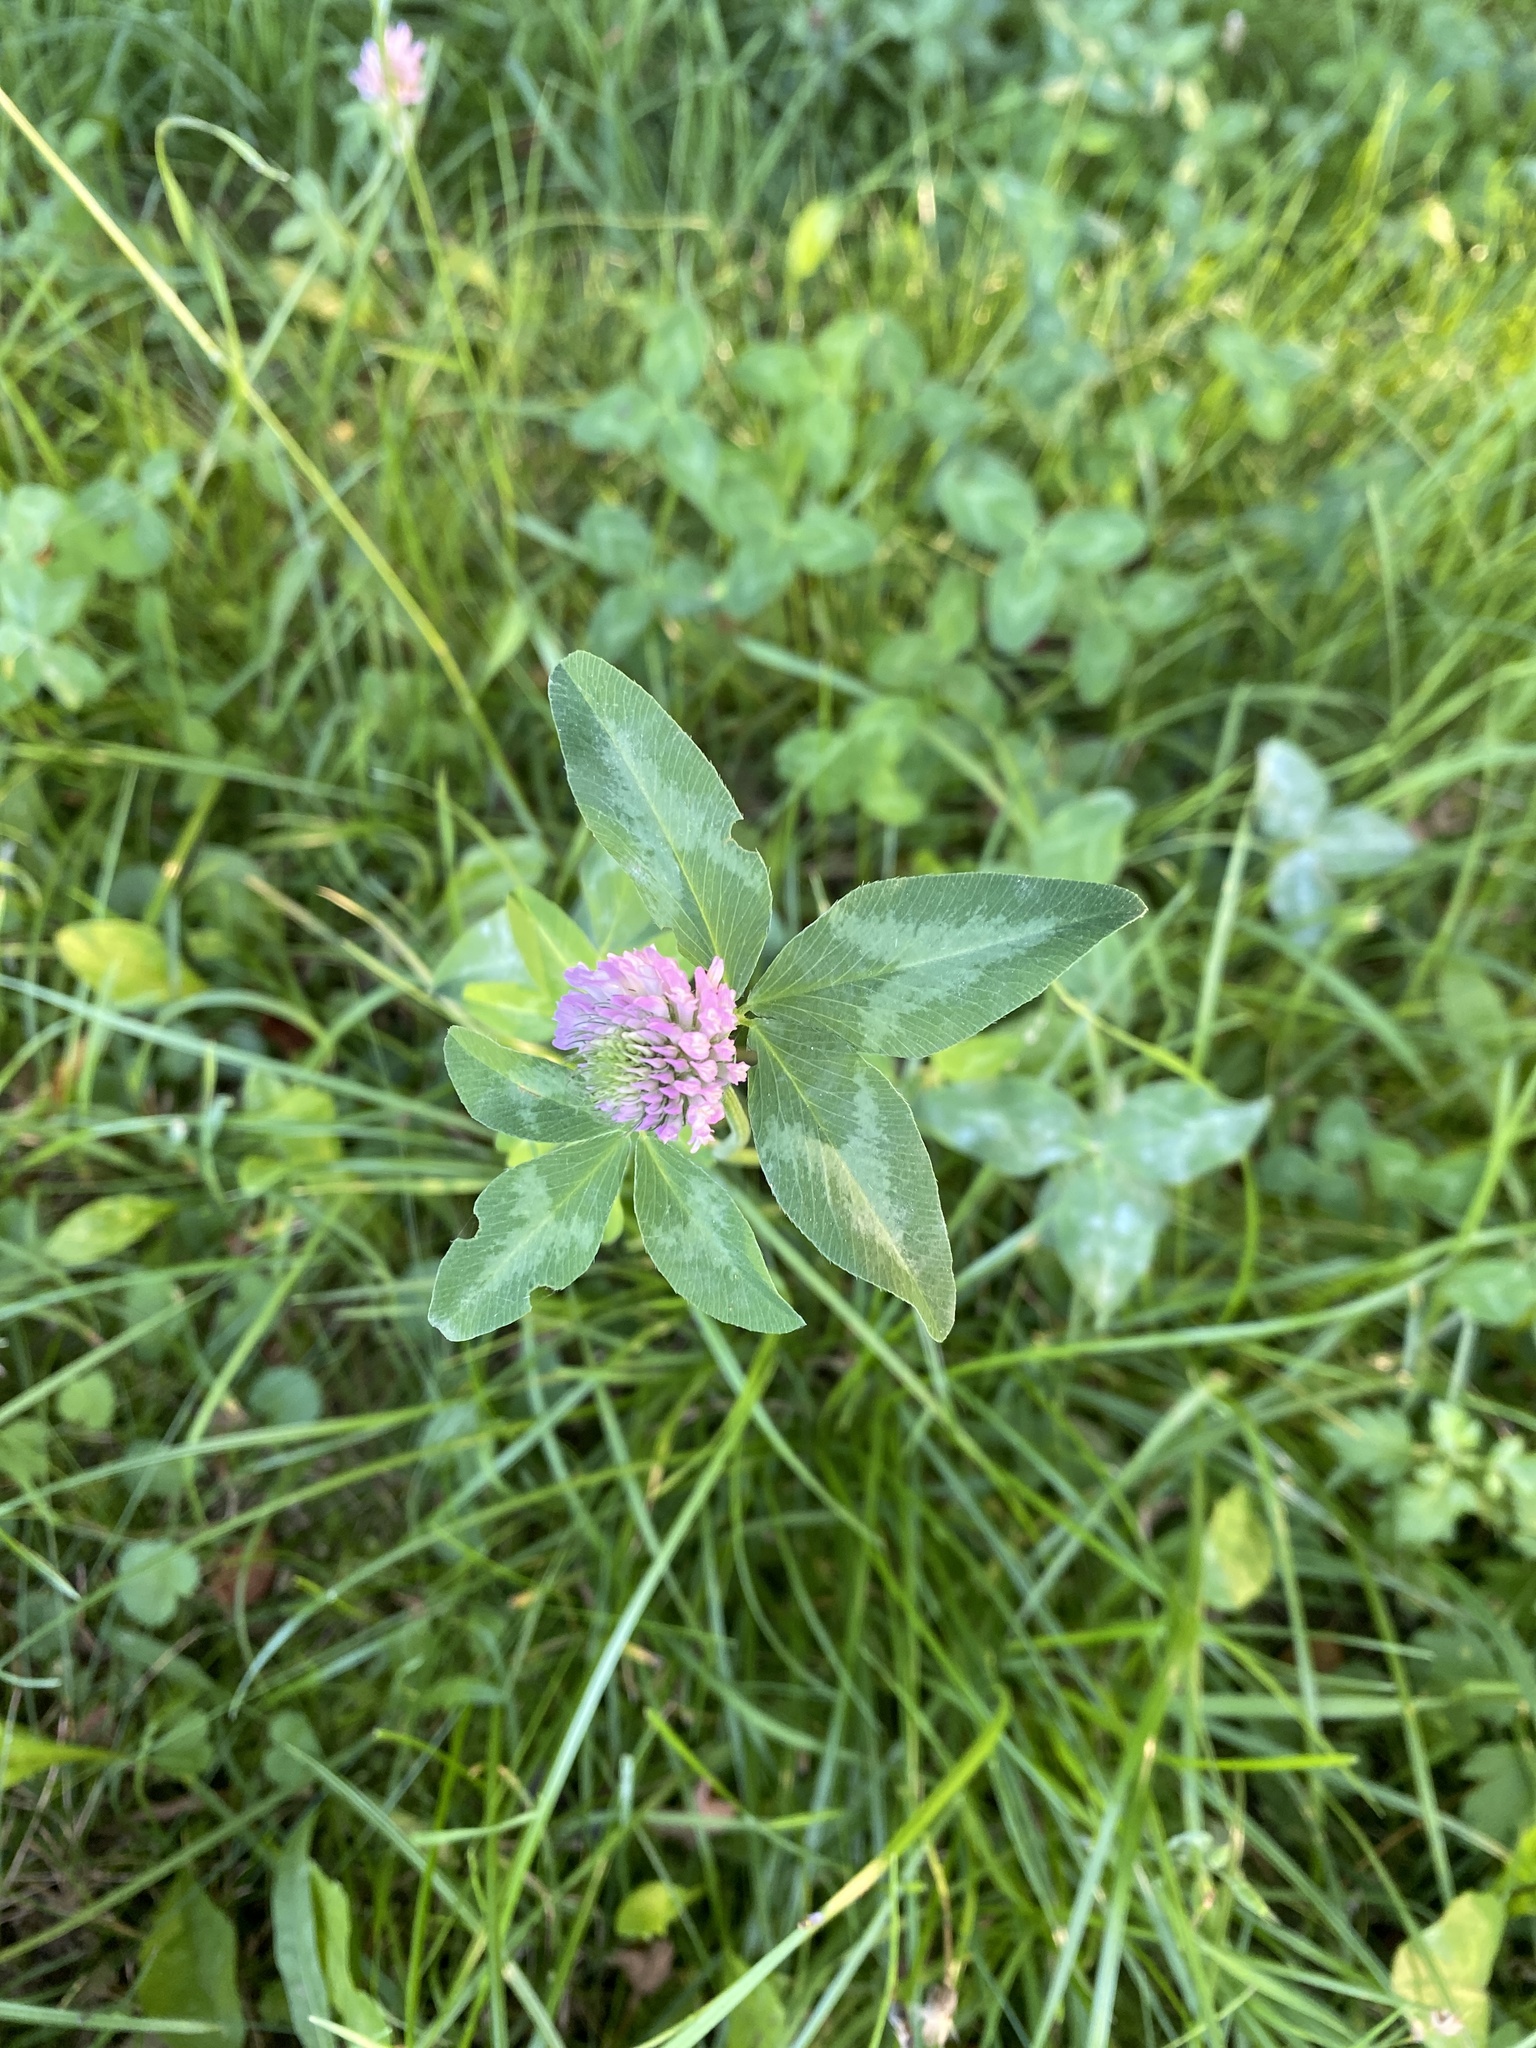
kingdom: Plantae
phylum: Tracheophyta
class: Magnoliopsida
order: Fabales
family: Fabaceae
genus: Trifolium
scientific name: Trifolium pratense
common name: Red clover
